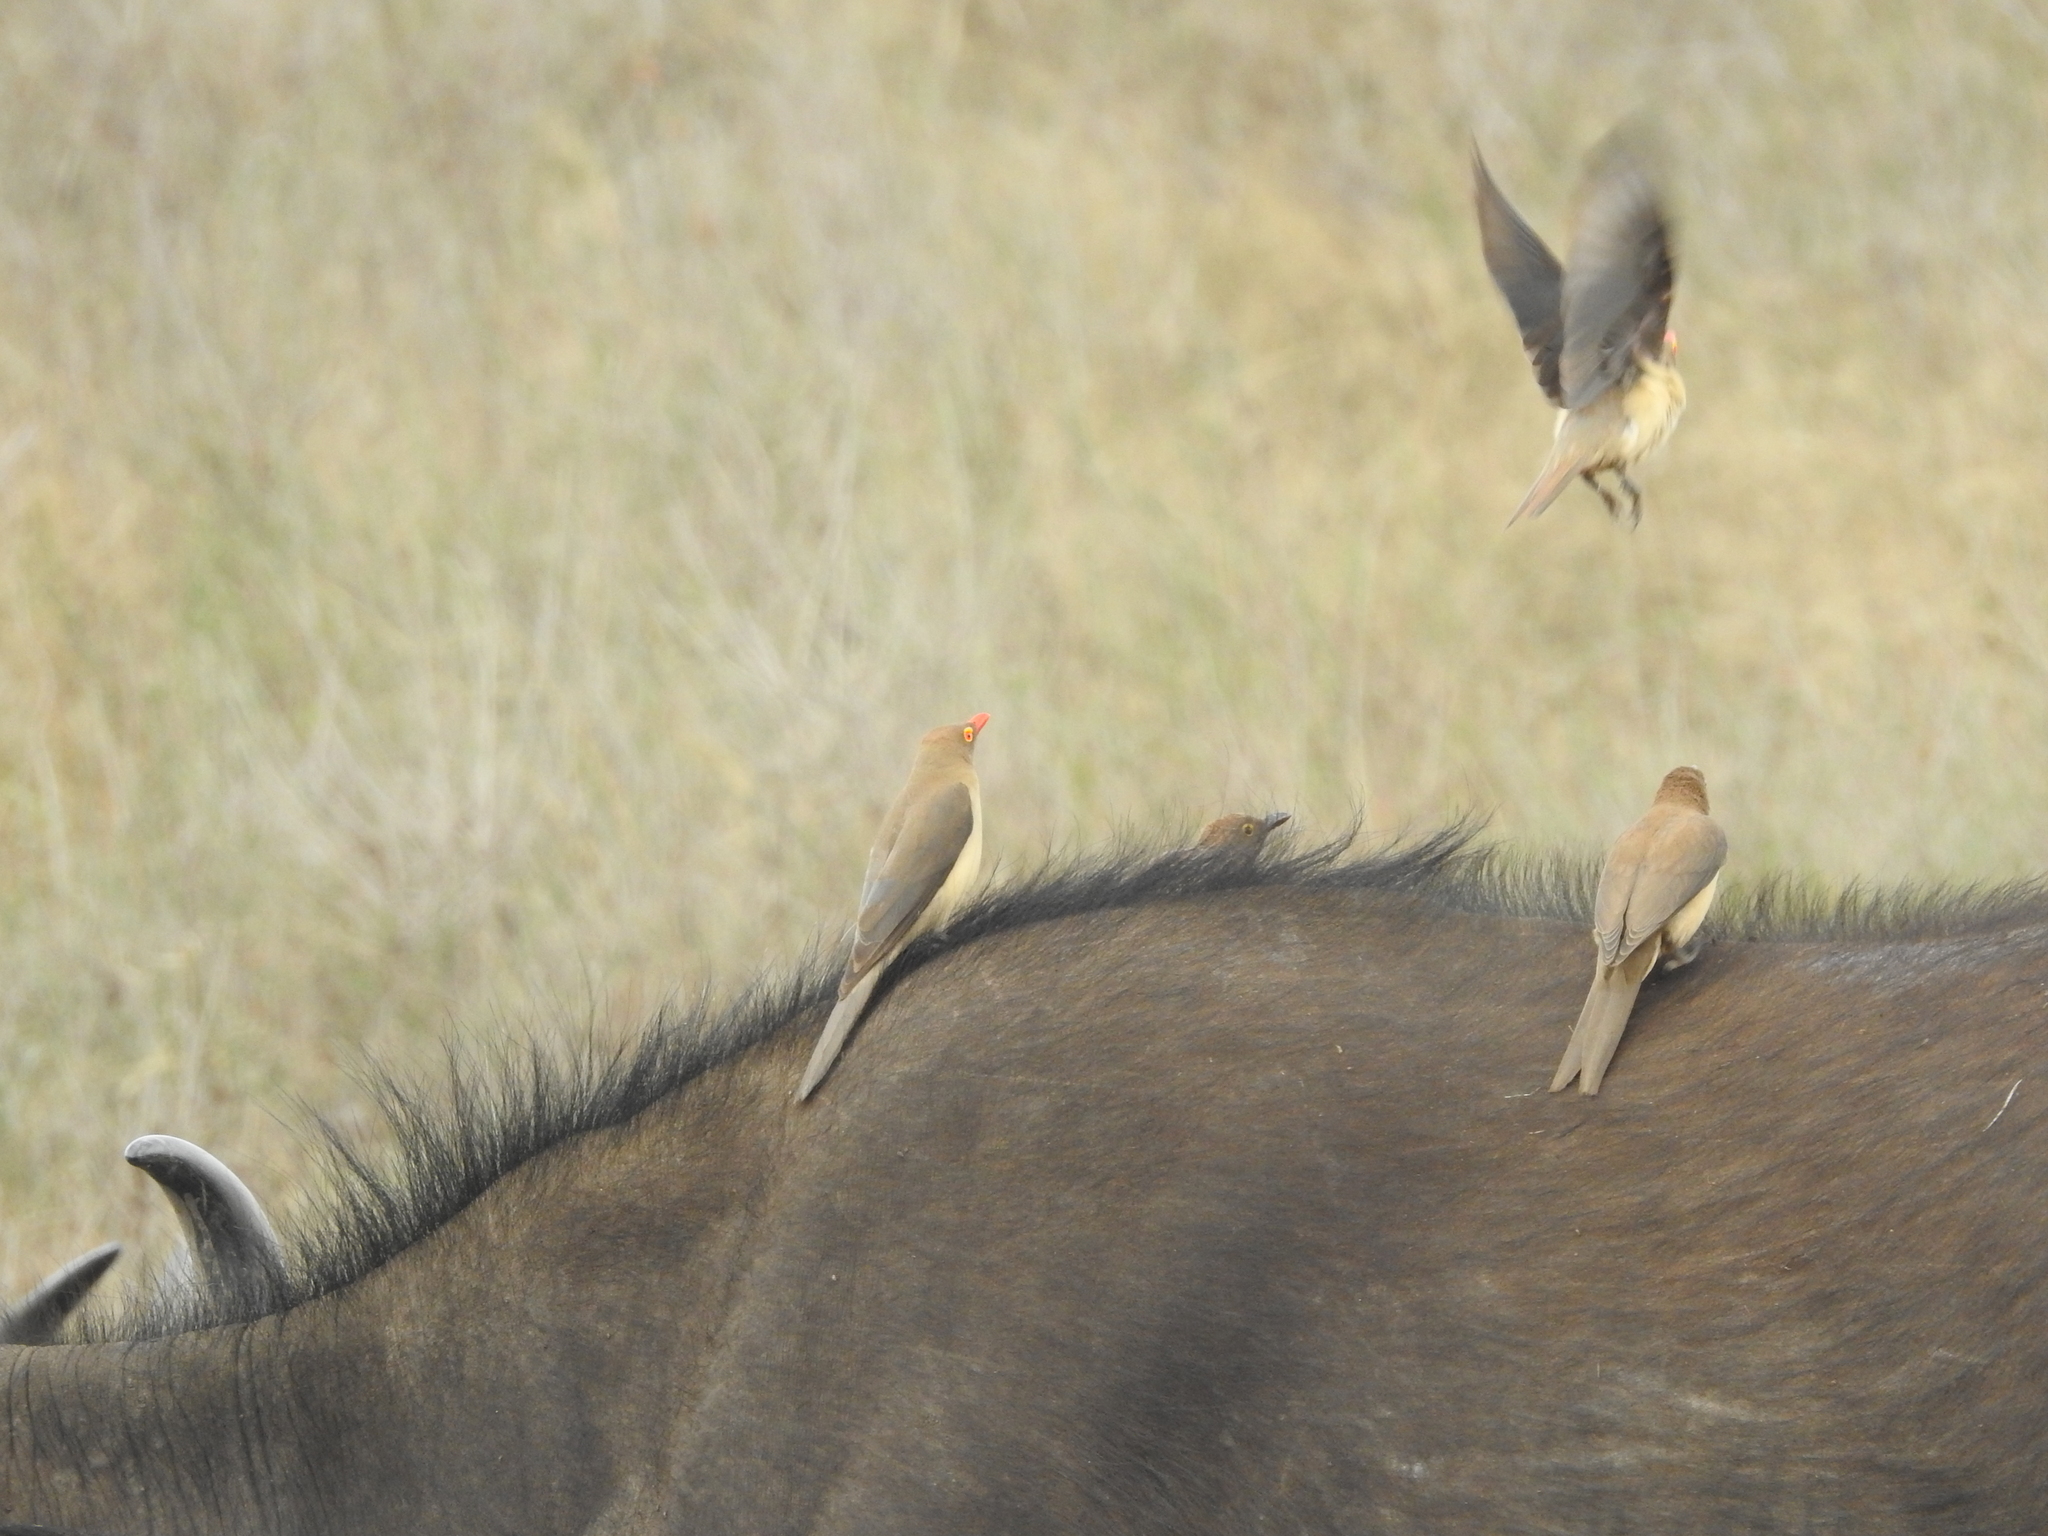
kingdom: Animalia
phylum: Chordata
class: Mammalia
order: Artiodactyla
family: Bovidae
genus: Syncerus
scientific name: Syncerus caffer
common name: African buffalo
